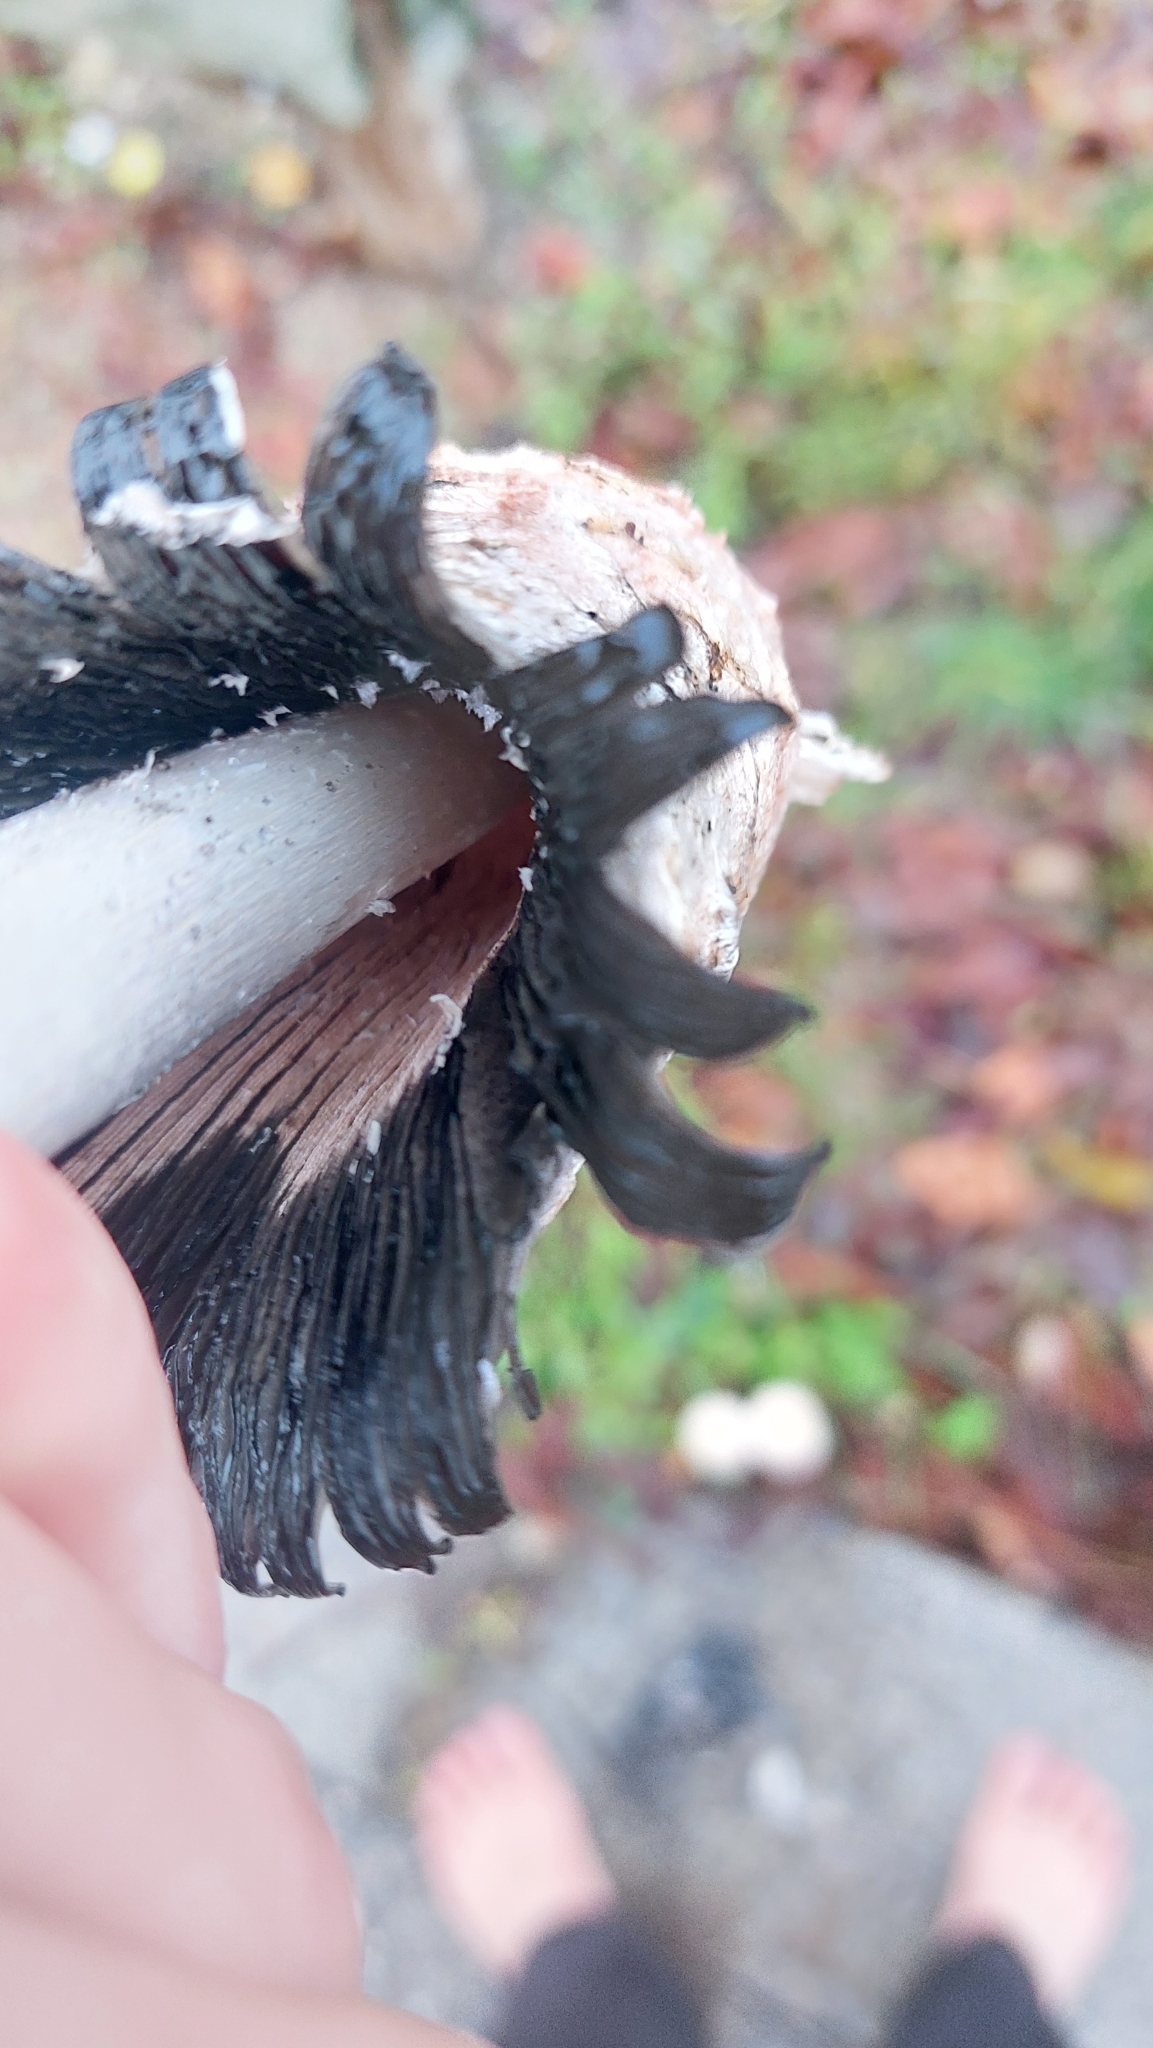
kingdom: Fungi
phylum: Basidiomycota
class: Agaricomycetes
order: Agaricales
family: Agaricaceae
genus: Coprinus
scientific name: Coprinus comatus
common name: Lawyer's wig
